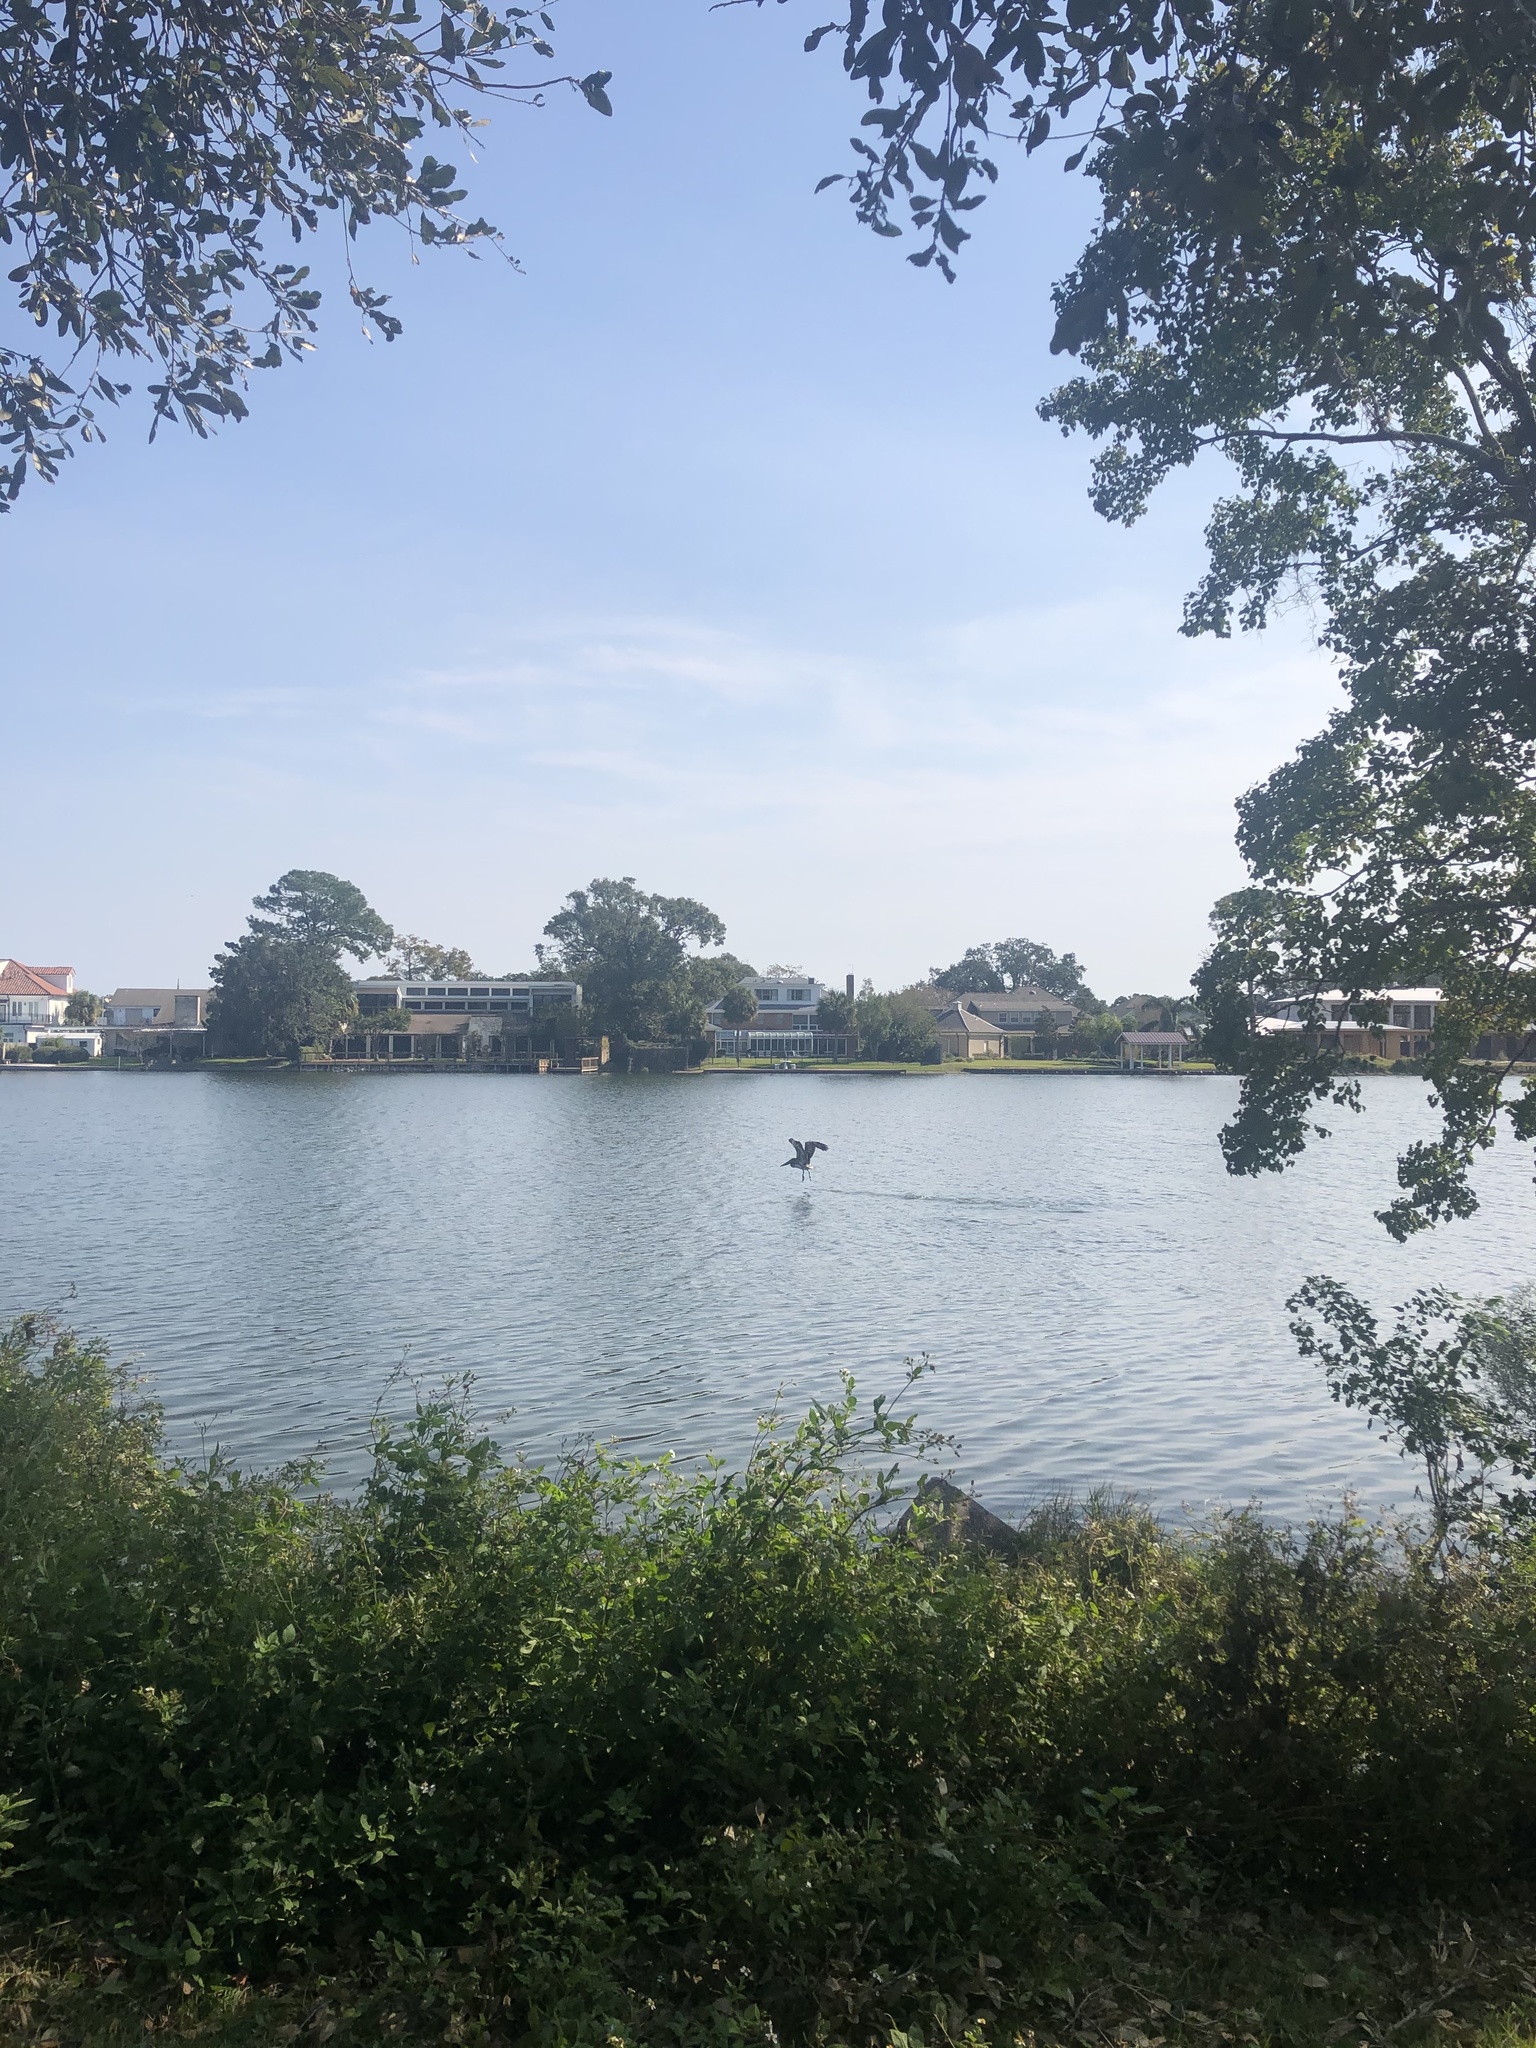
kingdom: Animalia
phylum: Chordata
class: Aves
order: Pelecaniformes
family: Pelecanidae
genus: Pelecanus
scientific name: Pelecanus occidentalis
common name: Brown pelican
